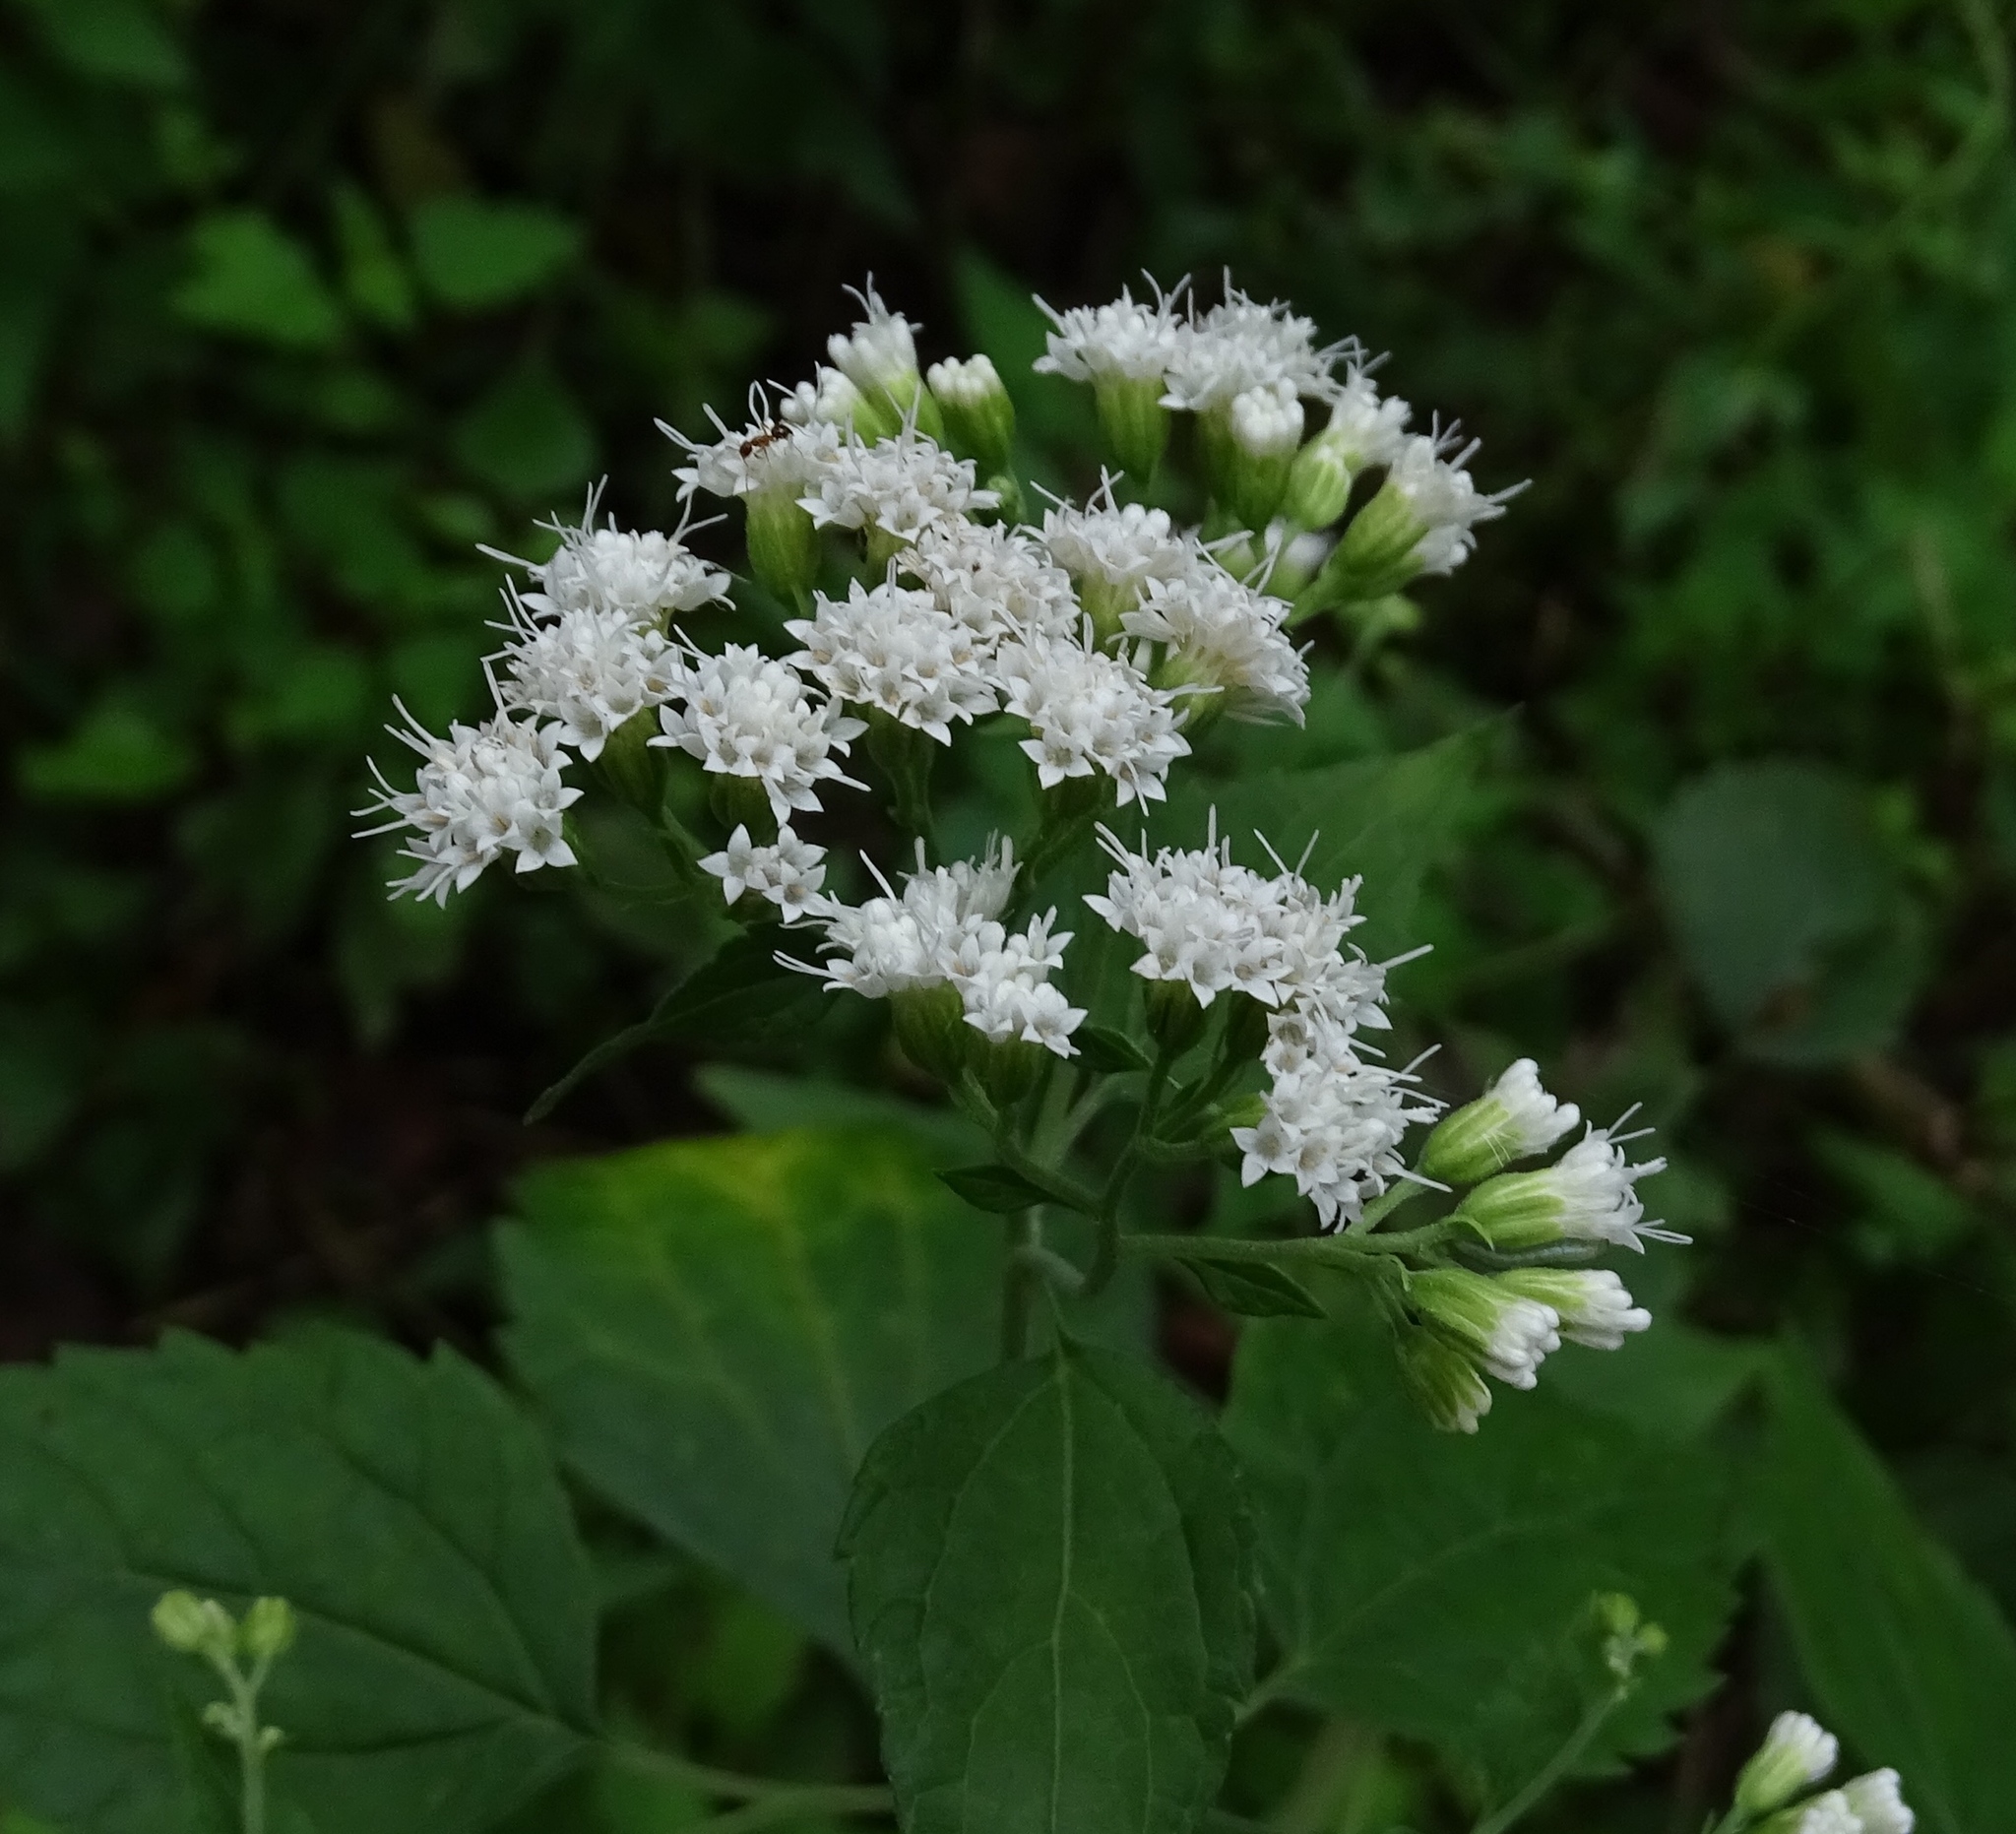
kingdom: Plantae
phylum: Tracheophyta
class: Magnoliopsida
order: Asterales
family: Asteraceae
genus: Ageratina
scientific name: Ageratina altissima
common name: White snakeroot
